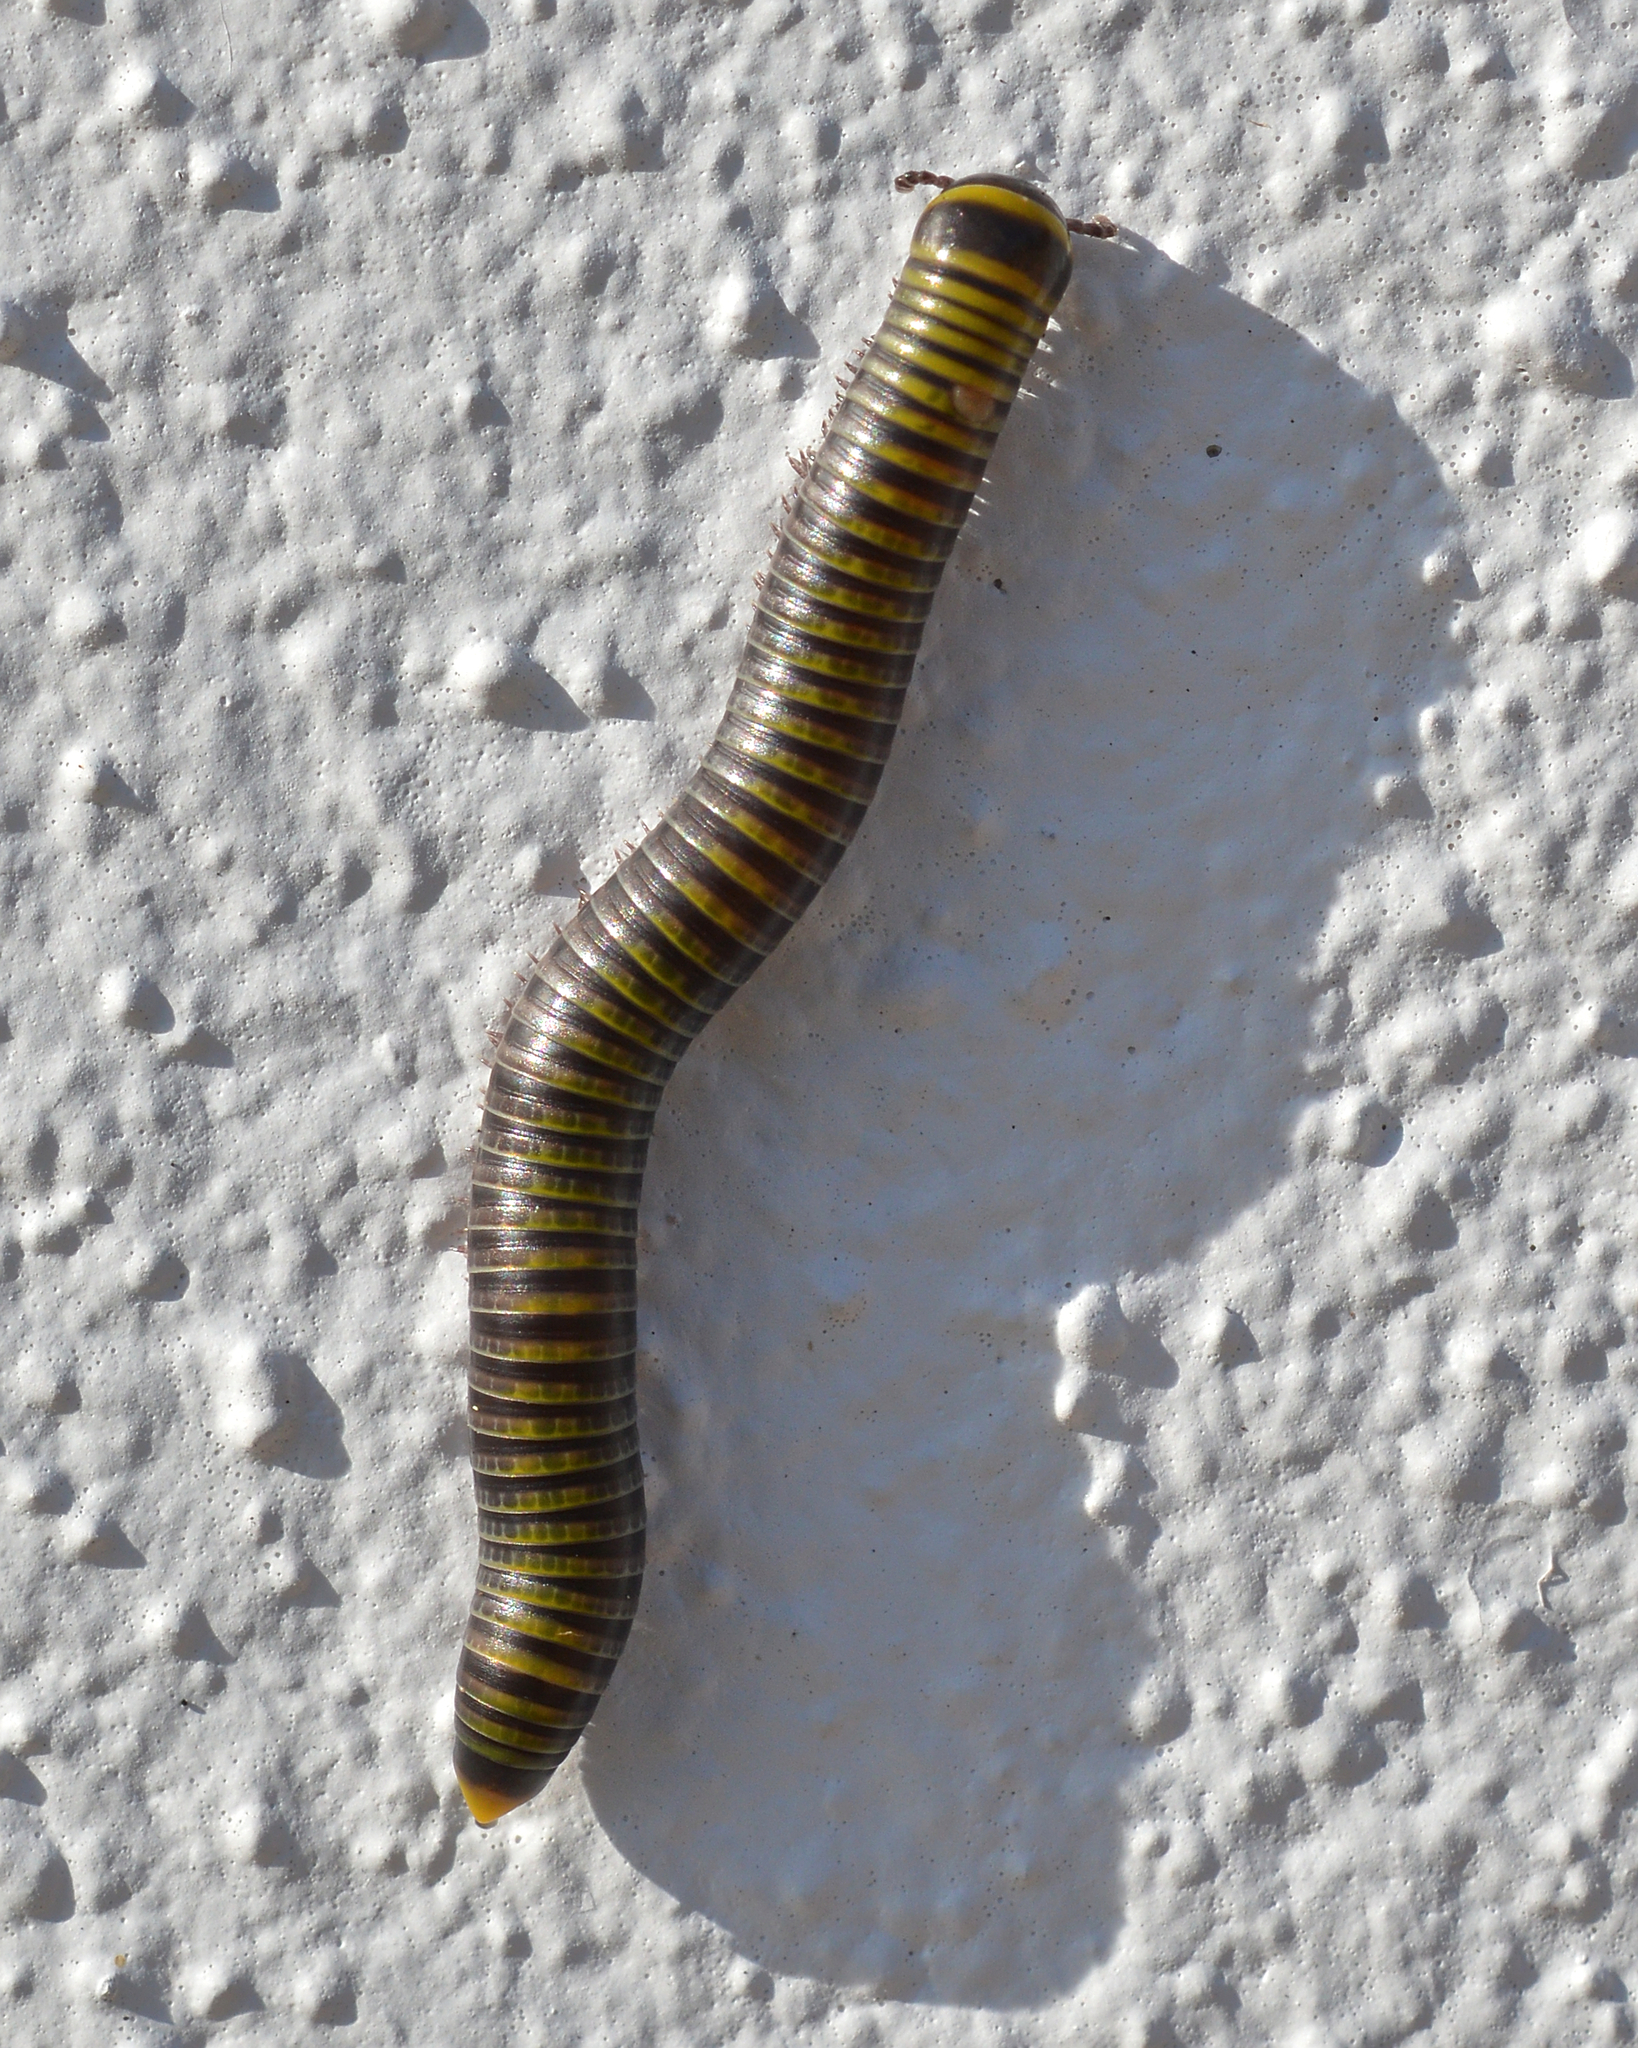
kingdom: Animalia
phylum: Arthropoda
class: Diplopoda
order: Spirobolida
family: Rhinocricidae
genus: Anadenobolus
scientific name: Anadenobolus monilicornis
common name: Caribbean millipede
